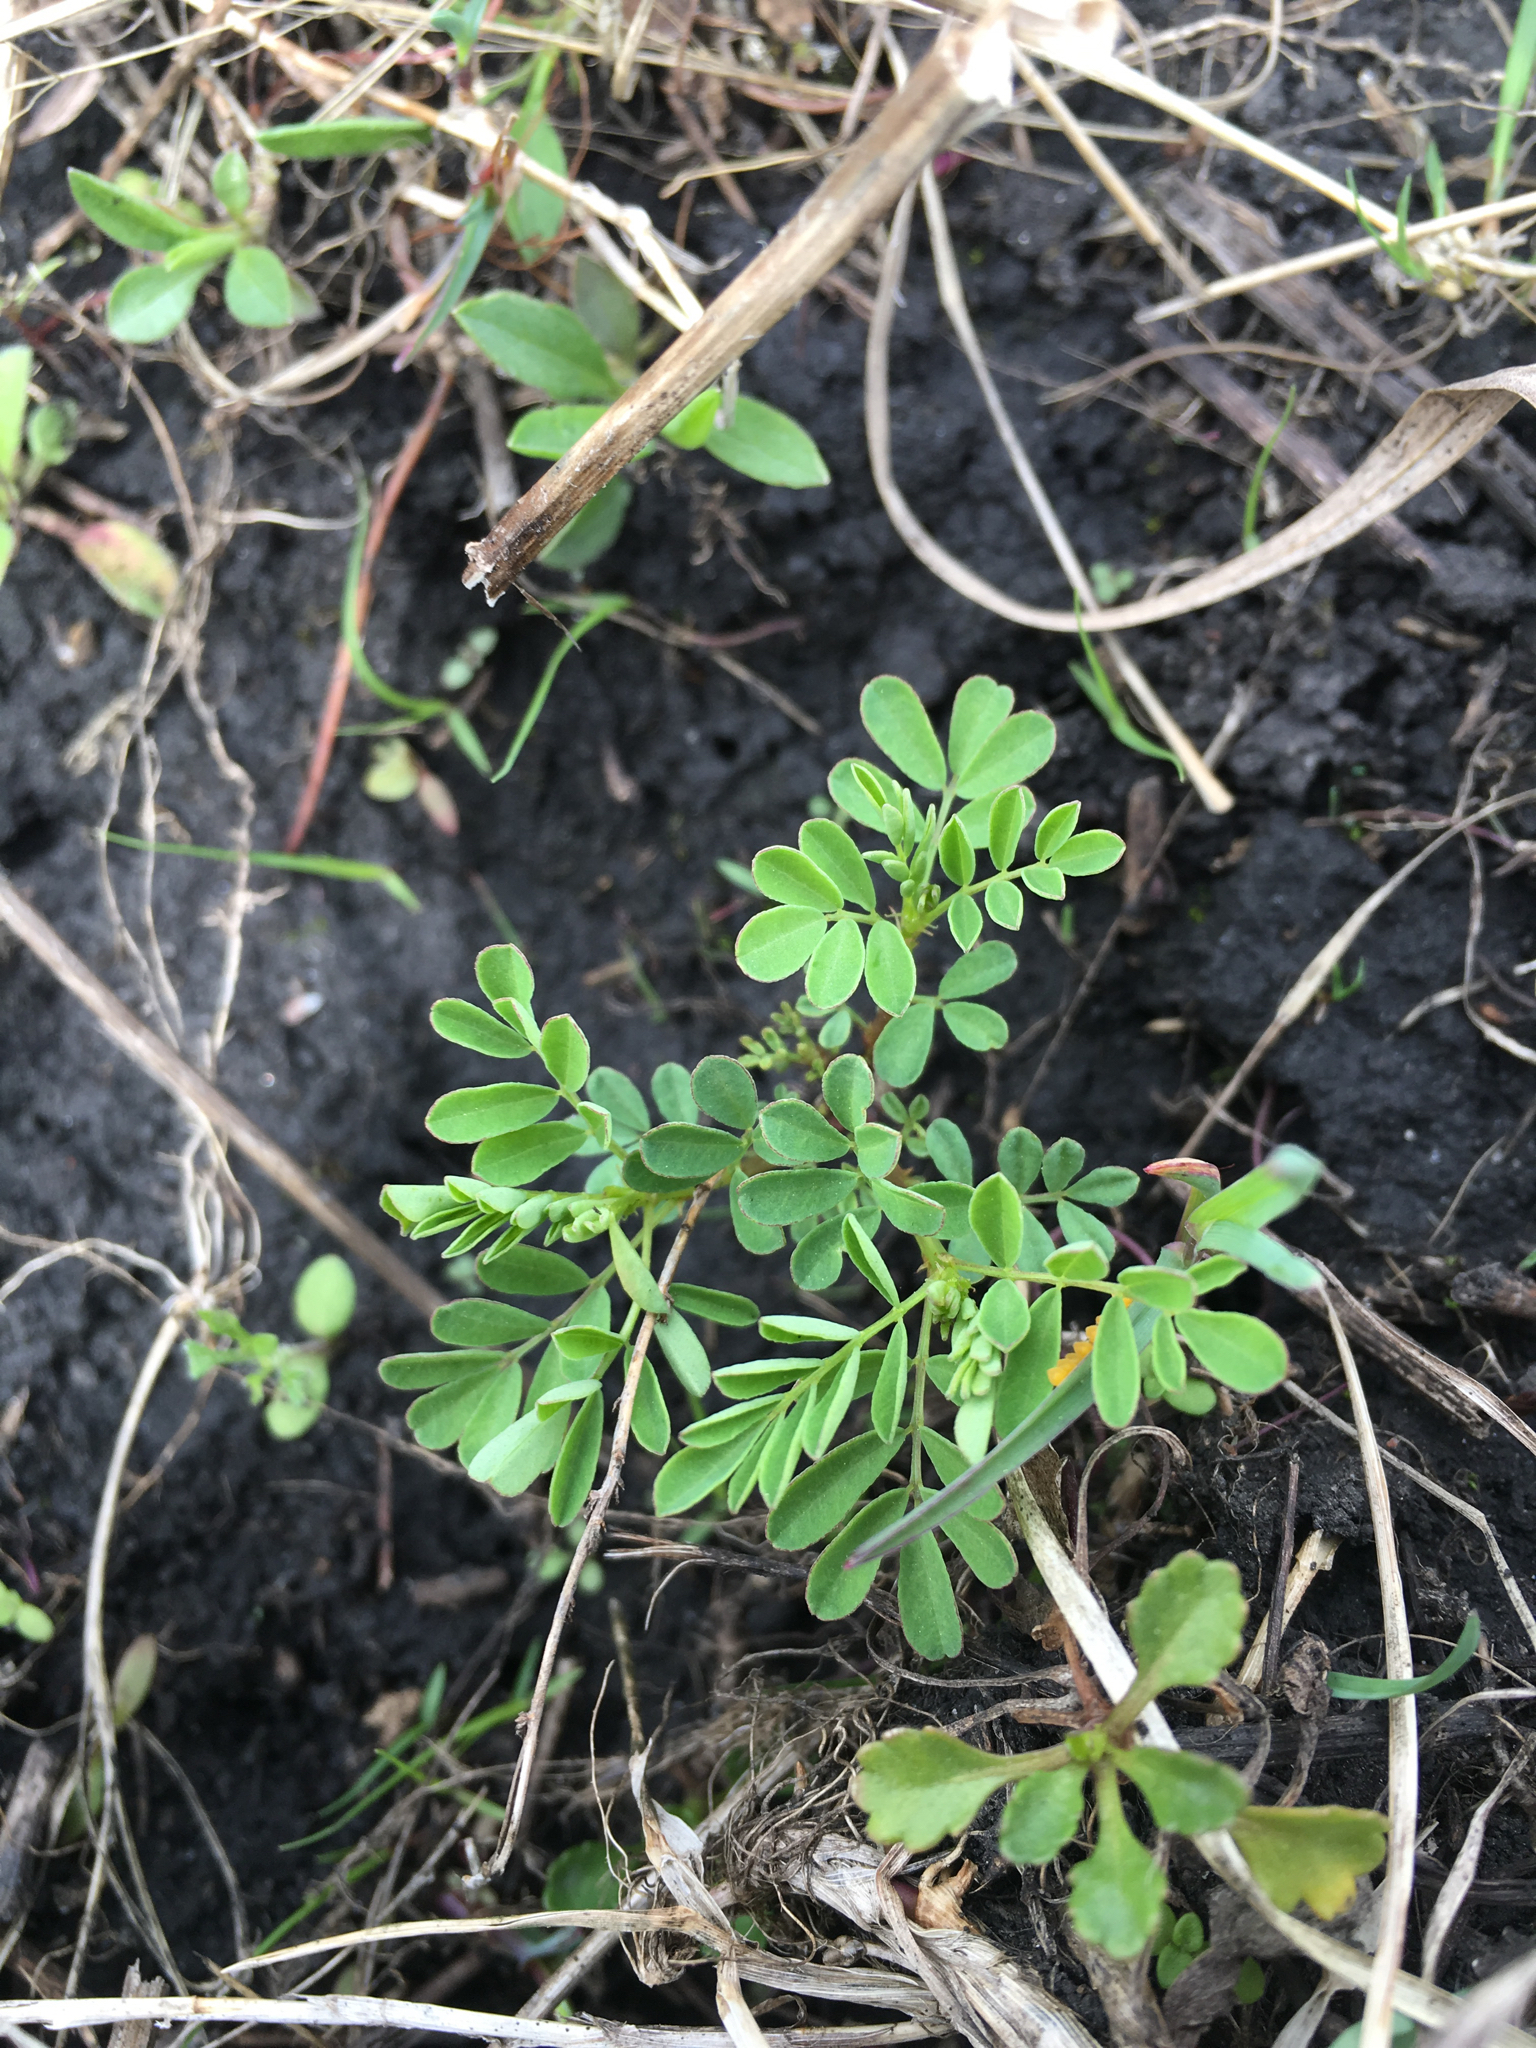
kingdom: Plantae
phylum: Tracheophyta
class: Magnoliopsida
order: Fabales
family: Fabaceae
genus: Dalea
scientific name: Dalea foliosa
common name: Leafy prairie-clover
